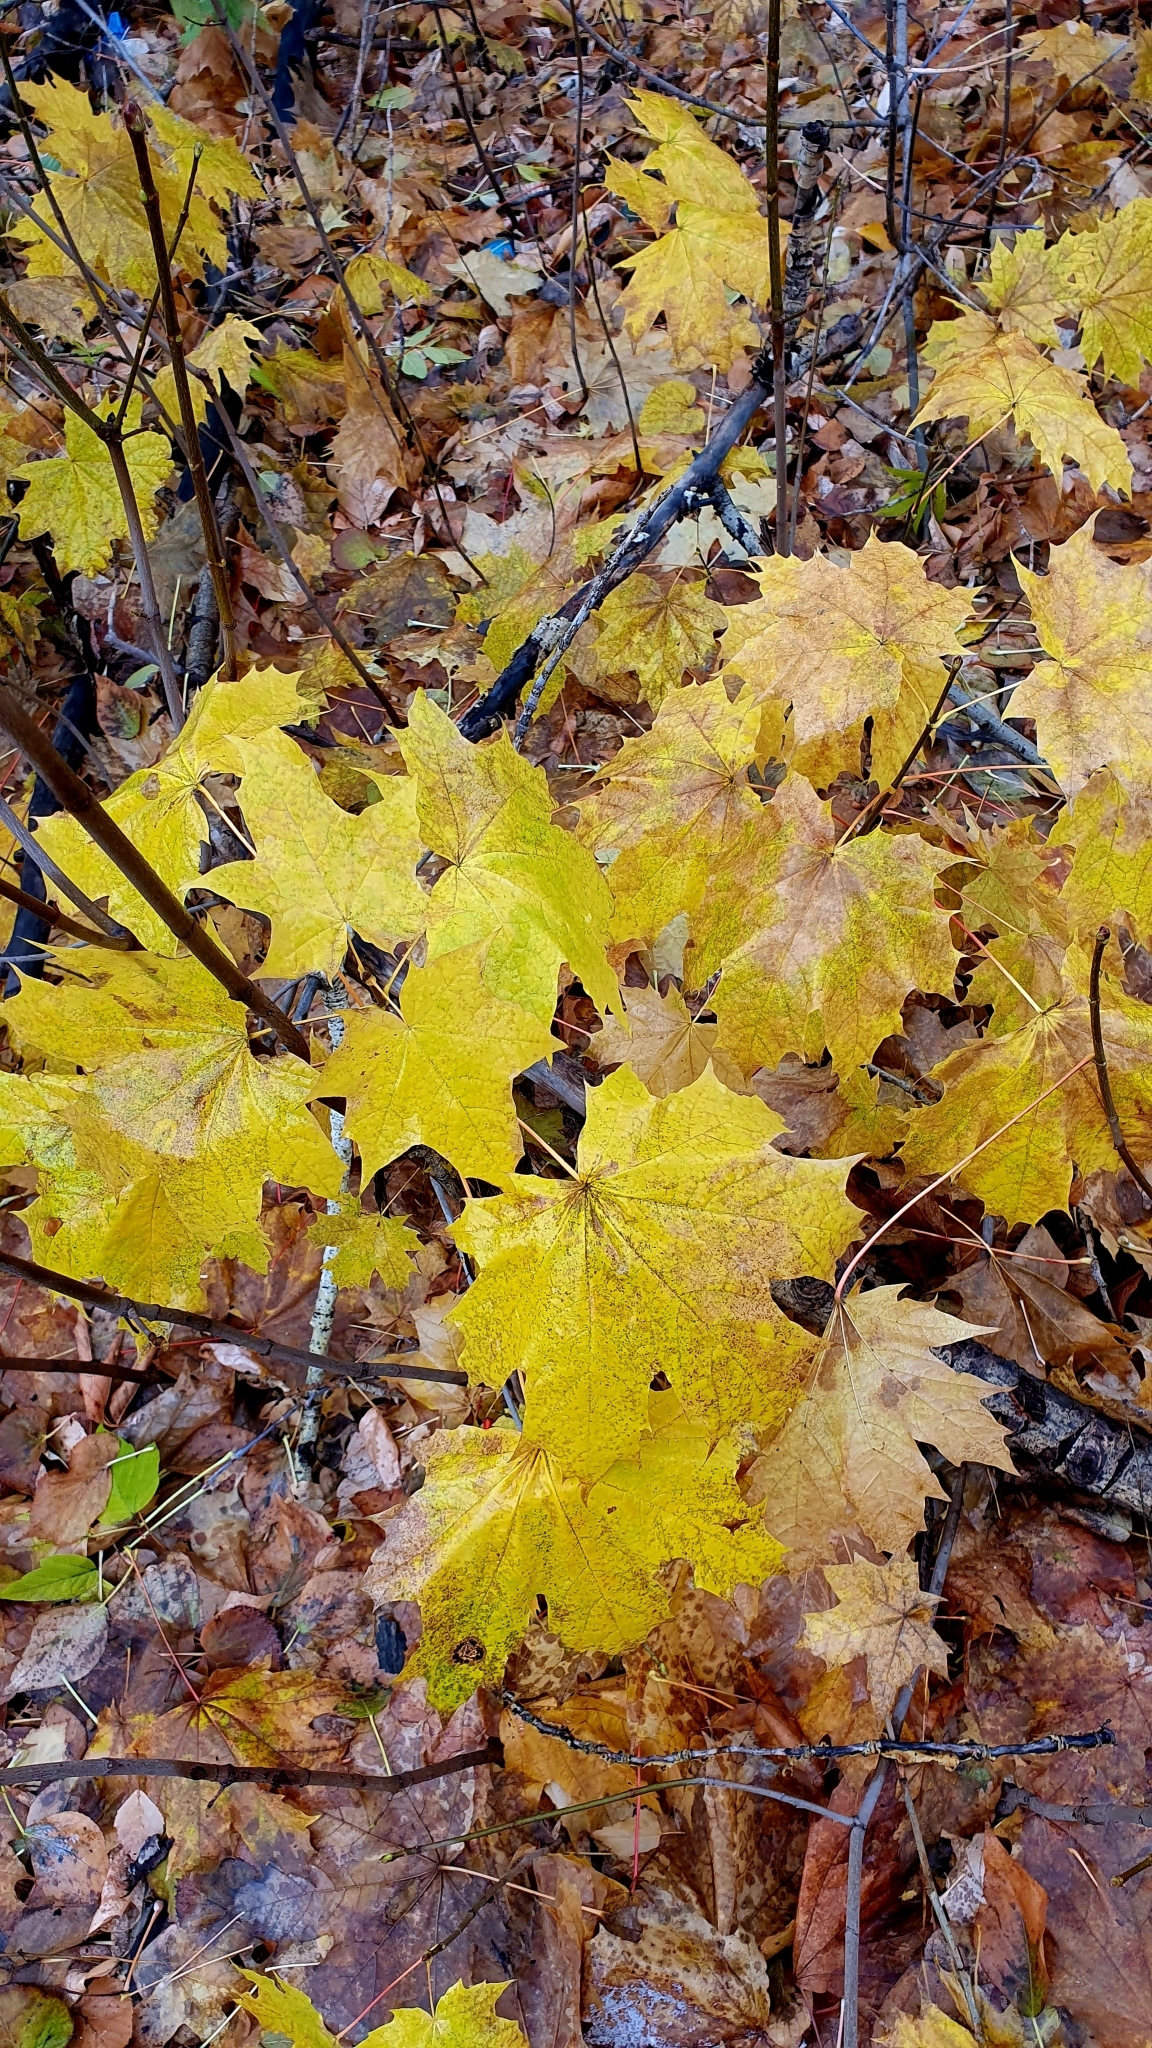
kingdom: Plantae
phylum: Tracheophyta
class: Magnoliopsida
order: Sapindales
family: Sapindaceae
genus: Acer
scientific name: Acer platanoides
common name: Norway maple
